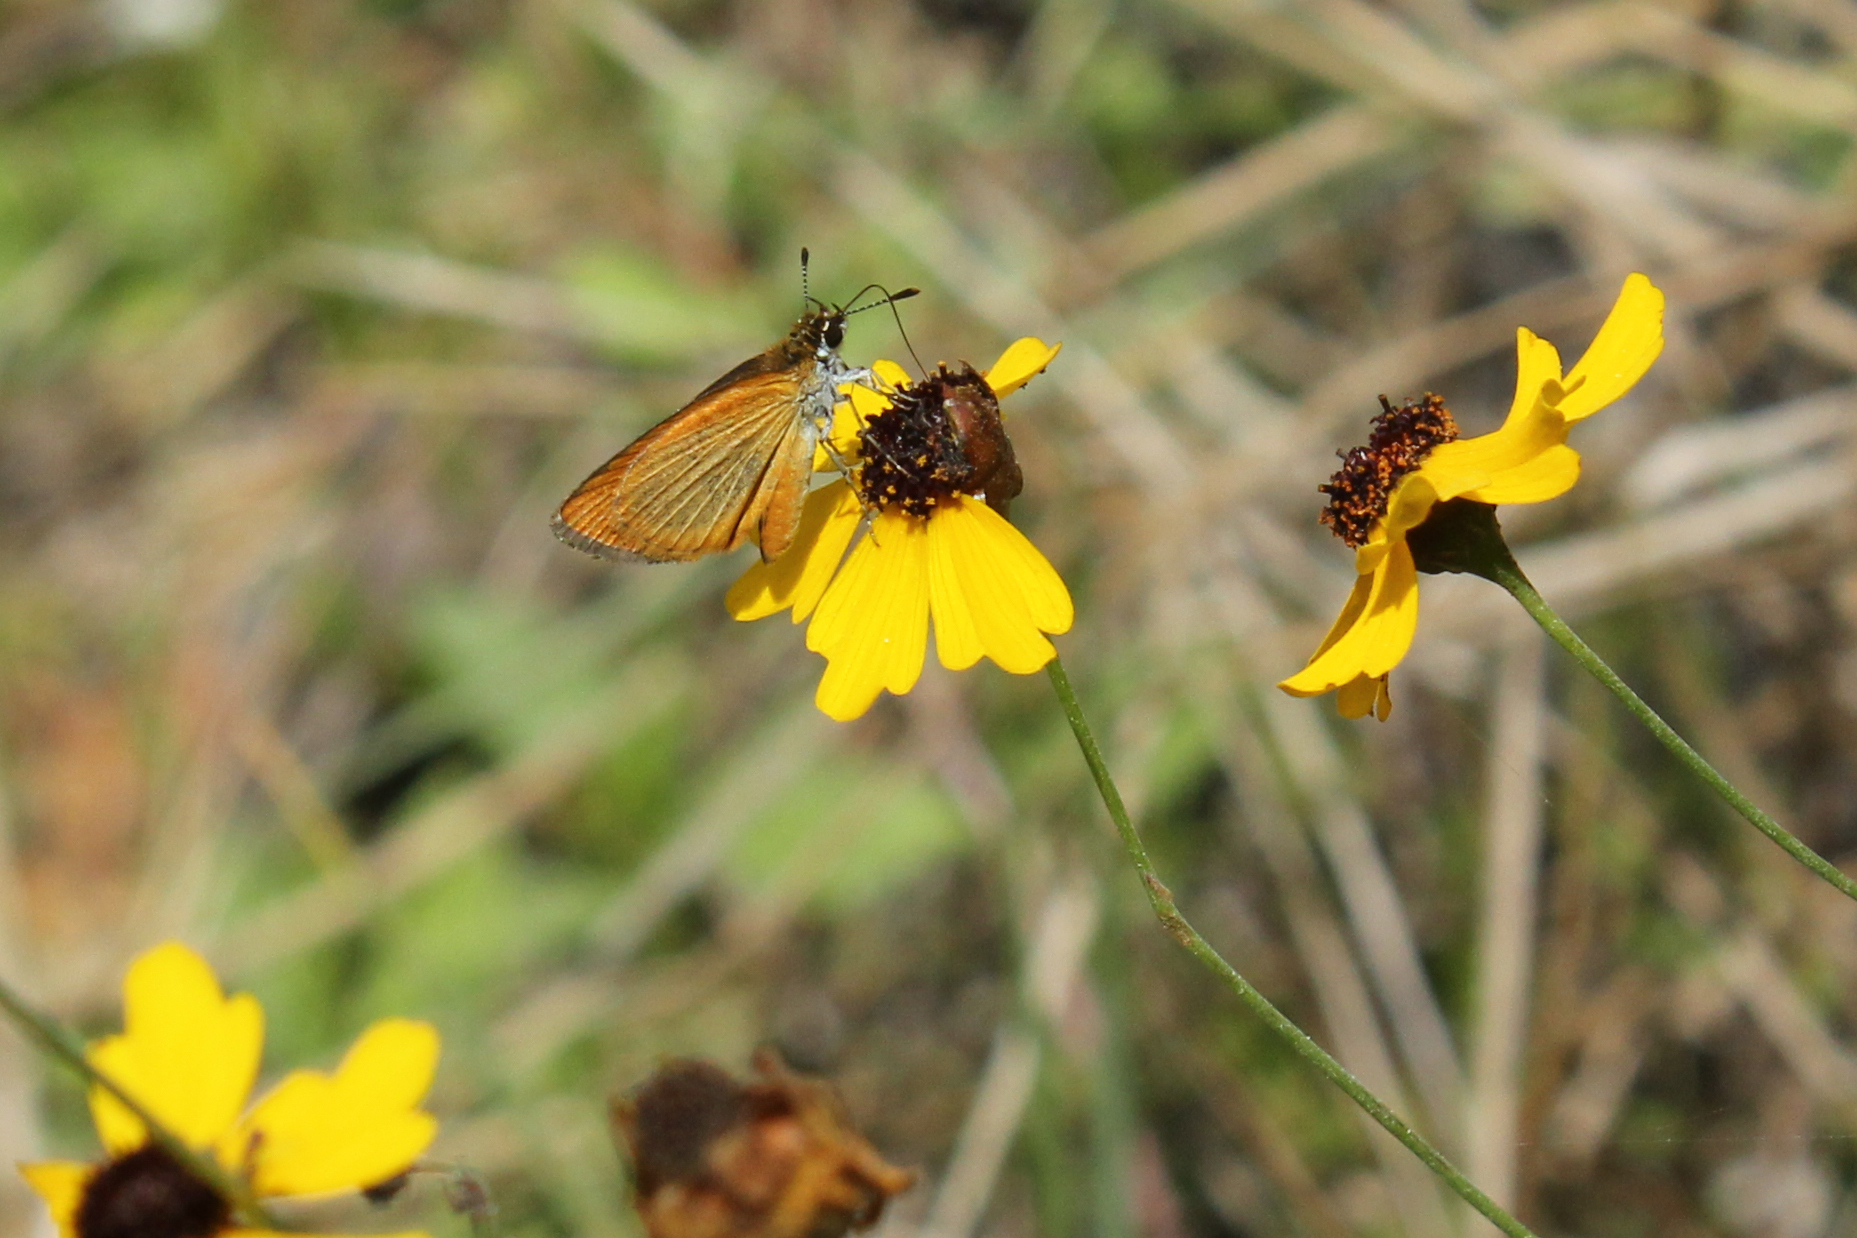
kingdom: Animalia
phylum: Arthropoda
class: Insecta
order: Lepidoptera
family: Hesperiidae
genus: Ancyloxypha
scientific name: Ancyloxypha numitor
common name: Least skipper
